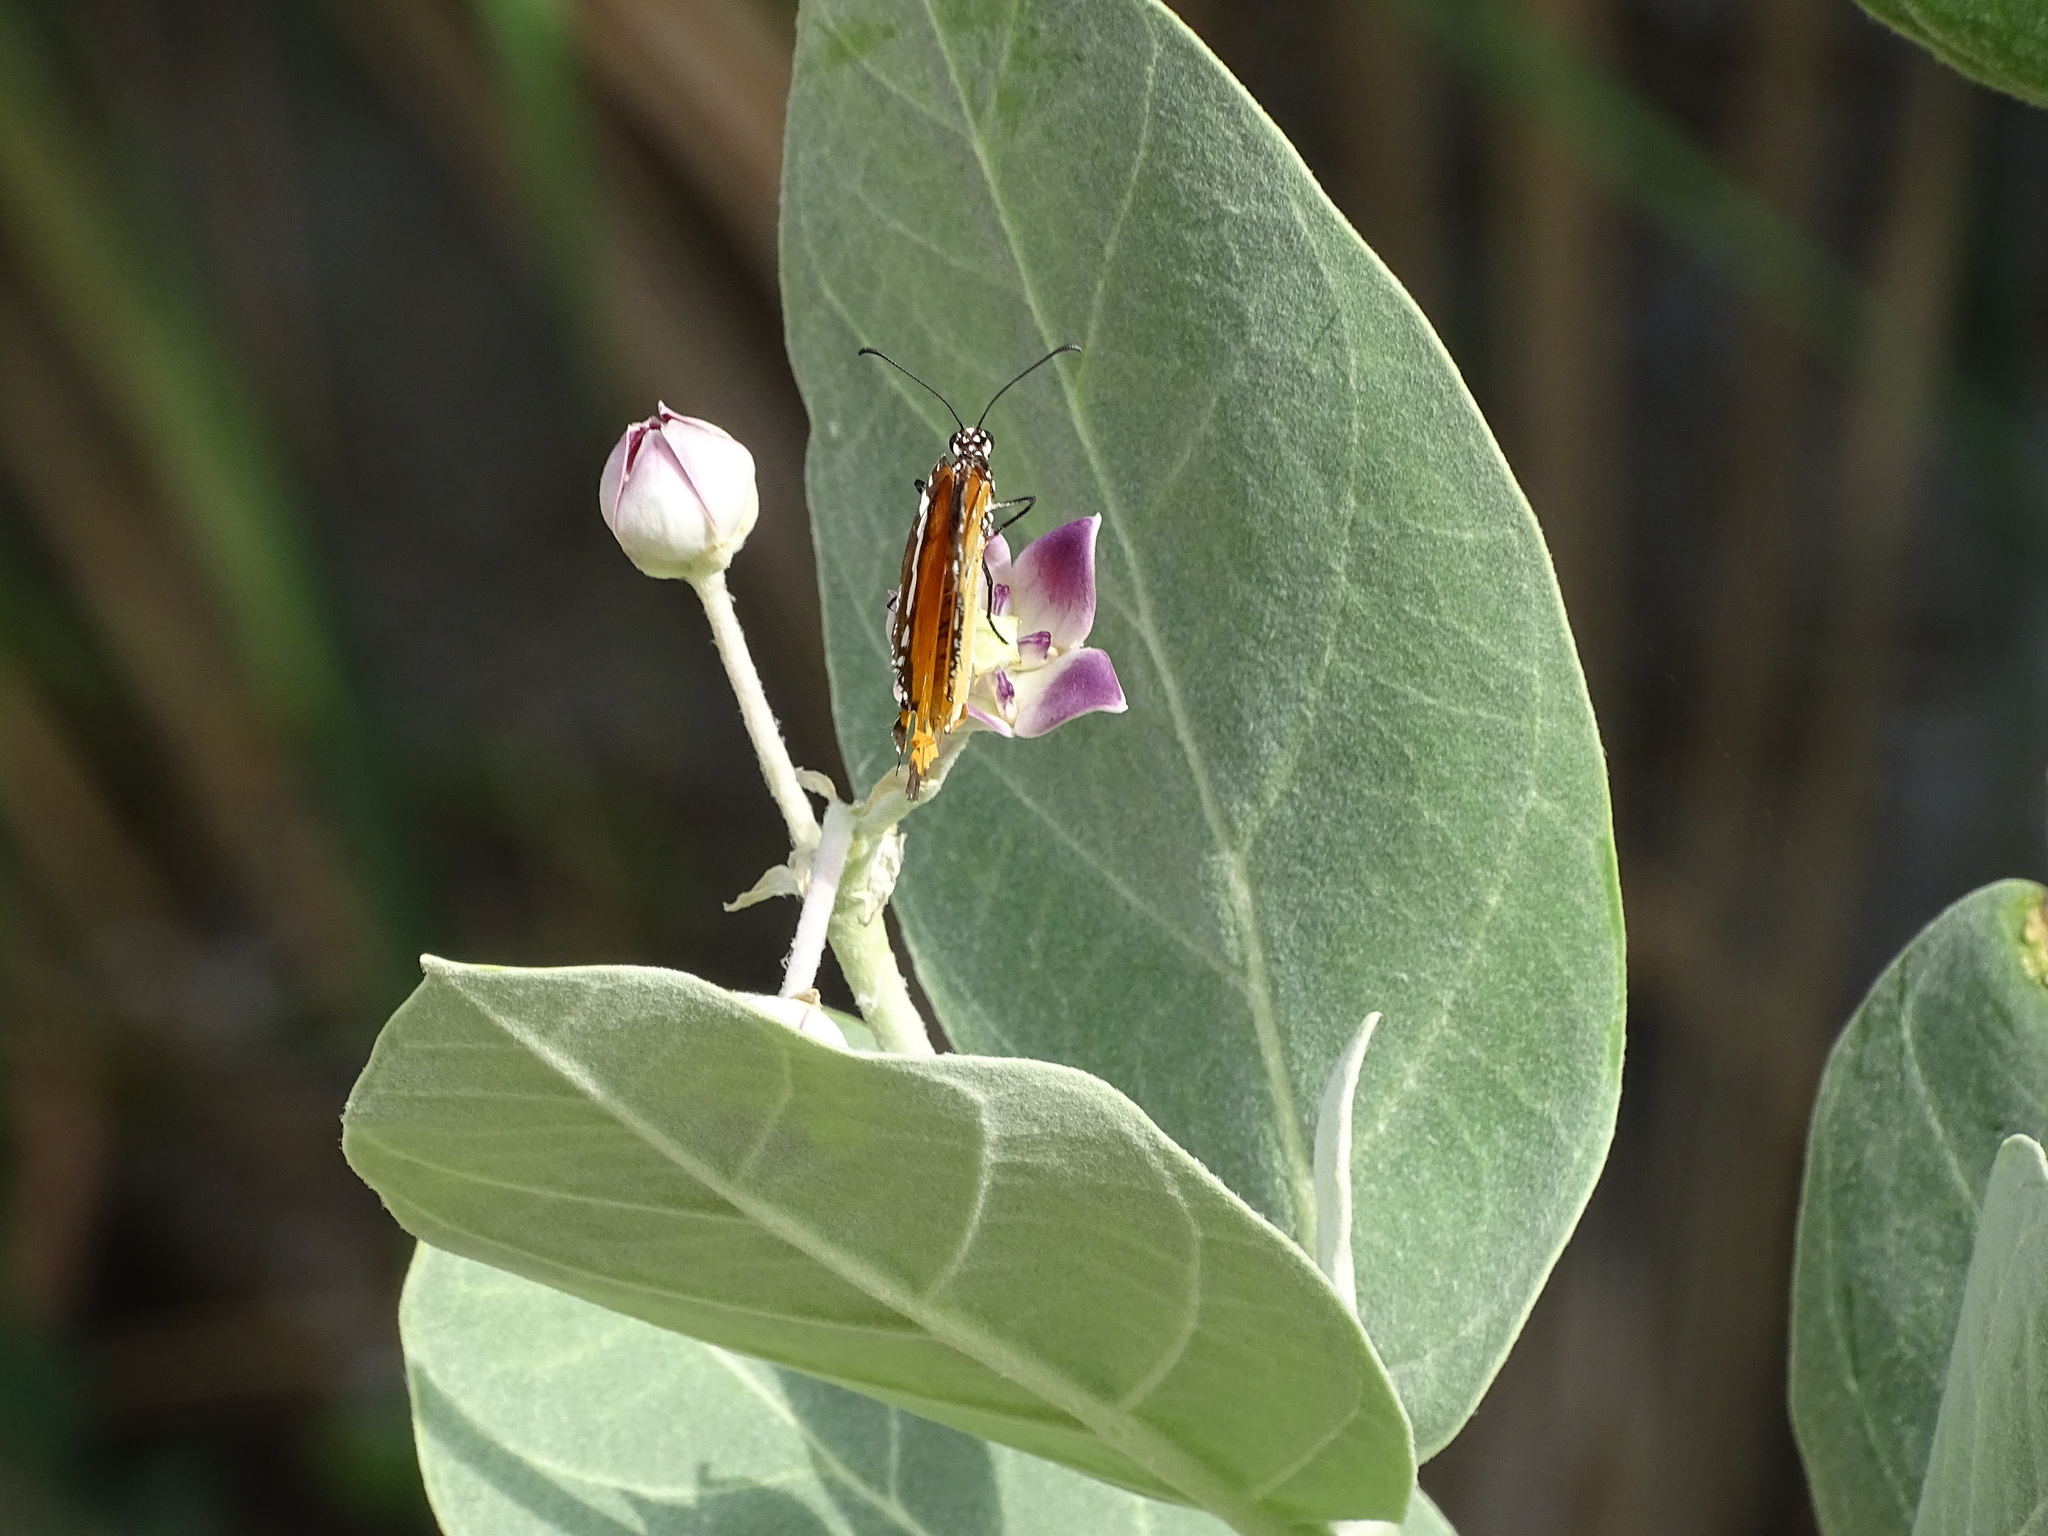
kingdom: Animalia
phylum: Arthropoda
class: Insecta
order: Lepidoptera
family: Nymphalidae
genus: Danaus
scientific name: Danaus chrysippus
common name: Plain tiger
